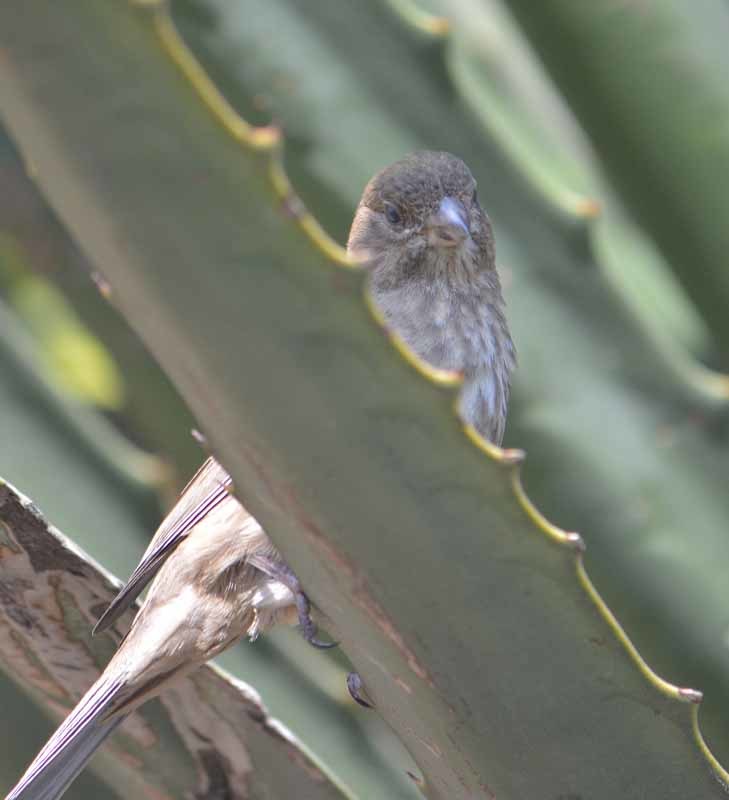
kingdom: Animalia
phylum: Chordata
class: Aves
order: Passeriformes
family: Fringillidae
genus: Haemorhous
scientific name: Haemorhous mexicanus
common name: House finch
